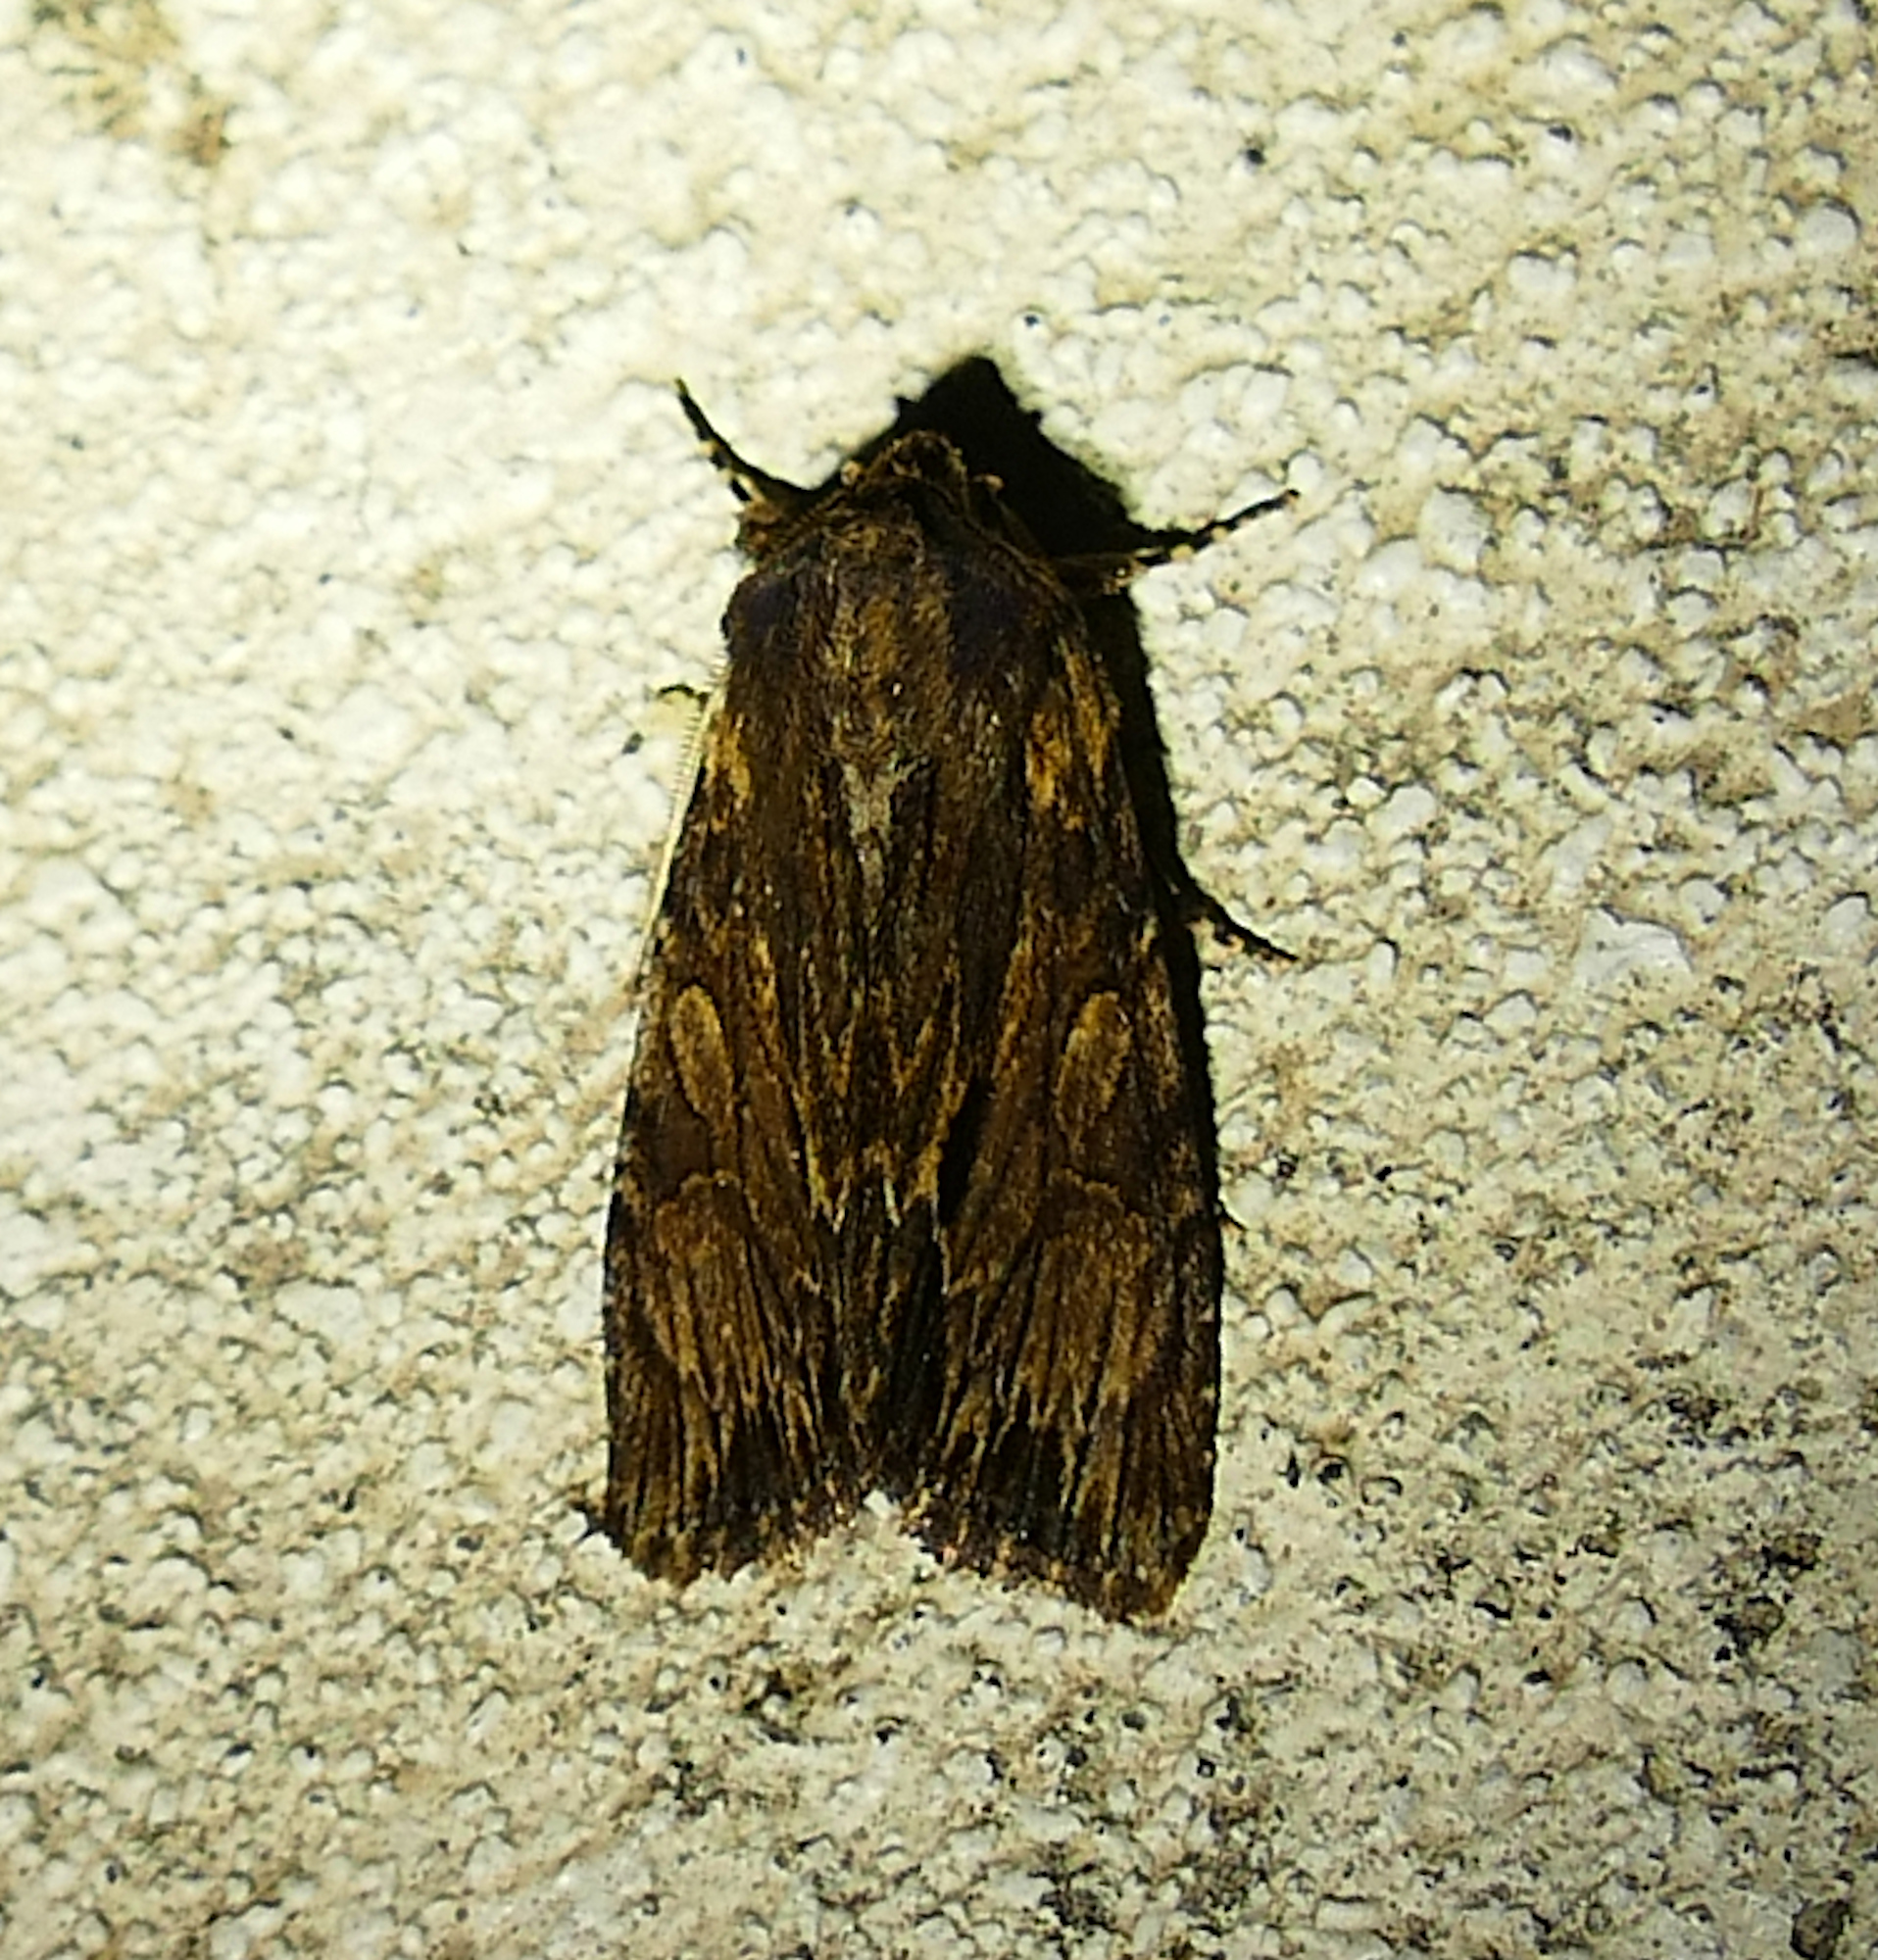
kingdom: Animalia
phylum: Arthropoda
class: Insecta
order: Lepidoptera
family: Noctuidae
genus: Achatia
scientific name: Achatia mucens
